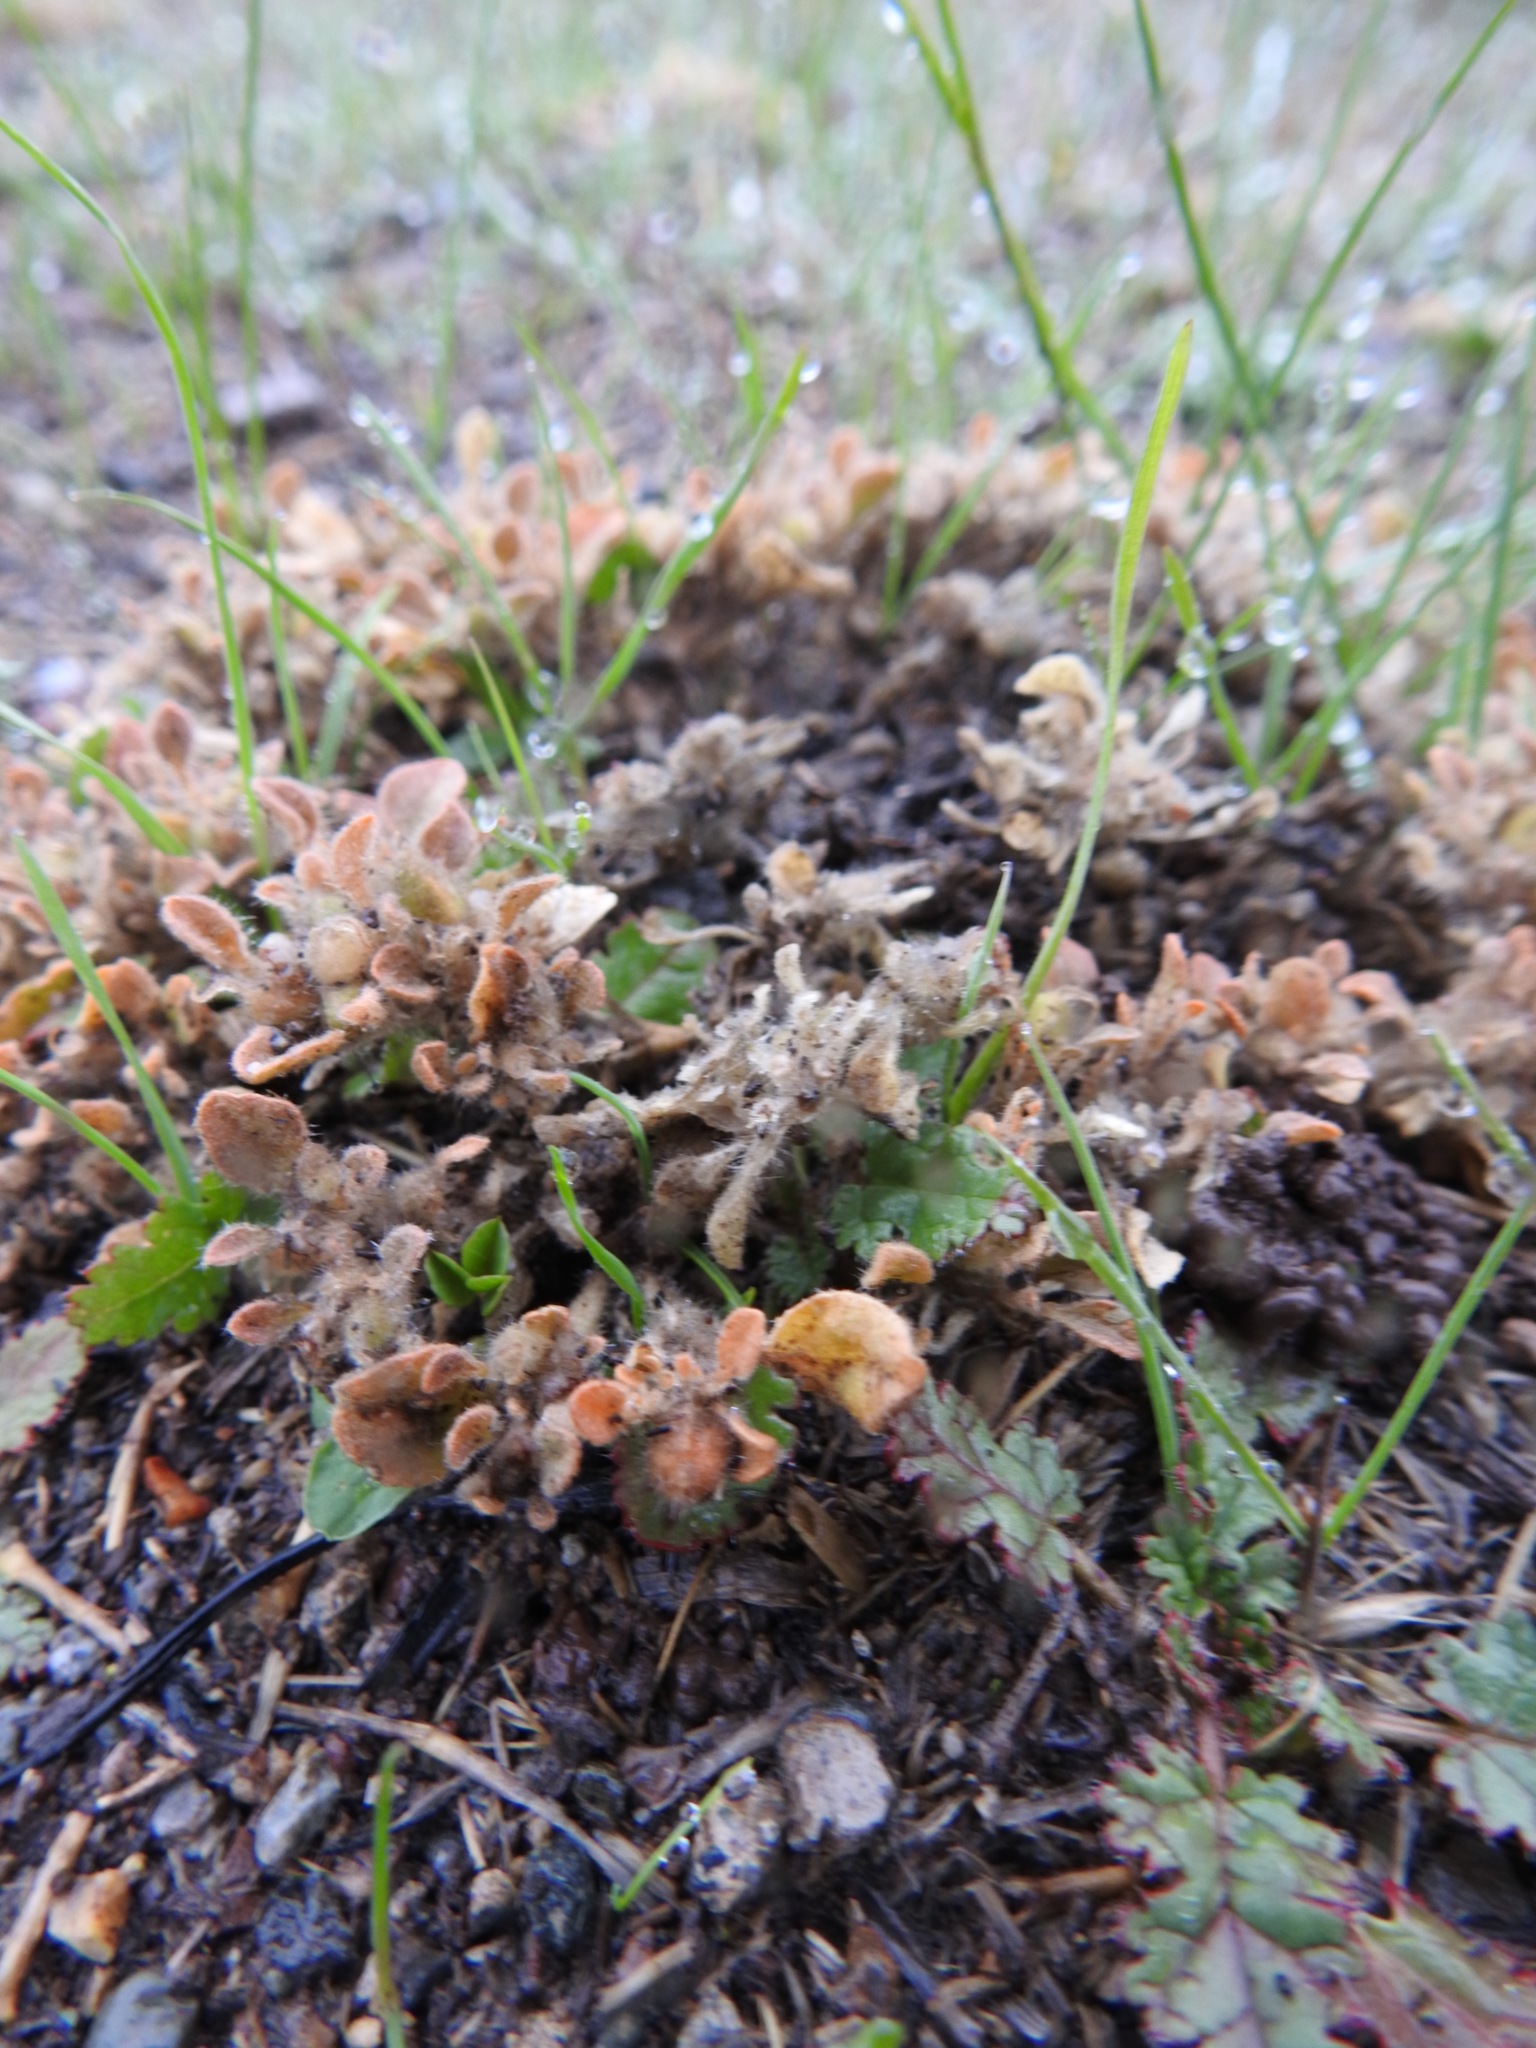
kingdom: Plantae
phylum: Tracheophyta
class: Magnoliopsida
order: Malpighiales
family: Euphorbiaceae
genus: Croton
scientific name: Croton setiger
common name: Dove weed
